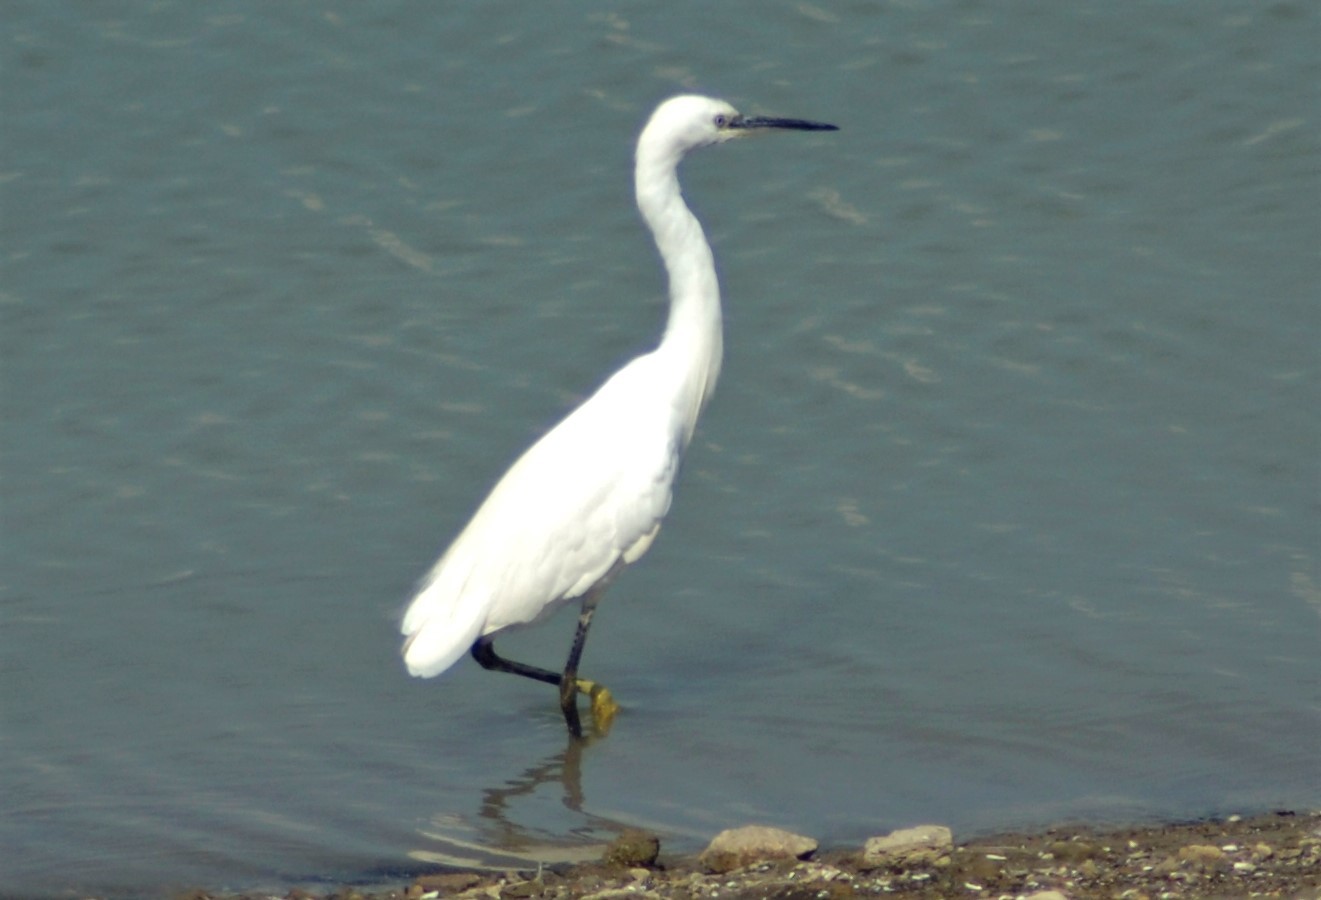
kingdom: Animalia
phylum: Chordata
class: Aves
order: Pelecaniformes
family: Ardeidae
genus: Egretta
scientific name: Egretta garzetta
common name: Little egret
